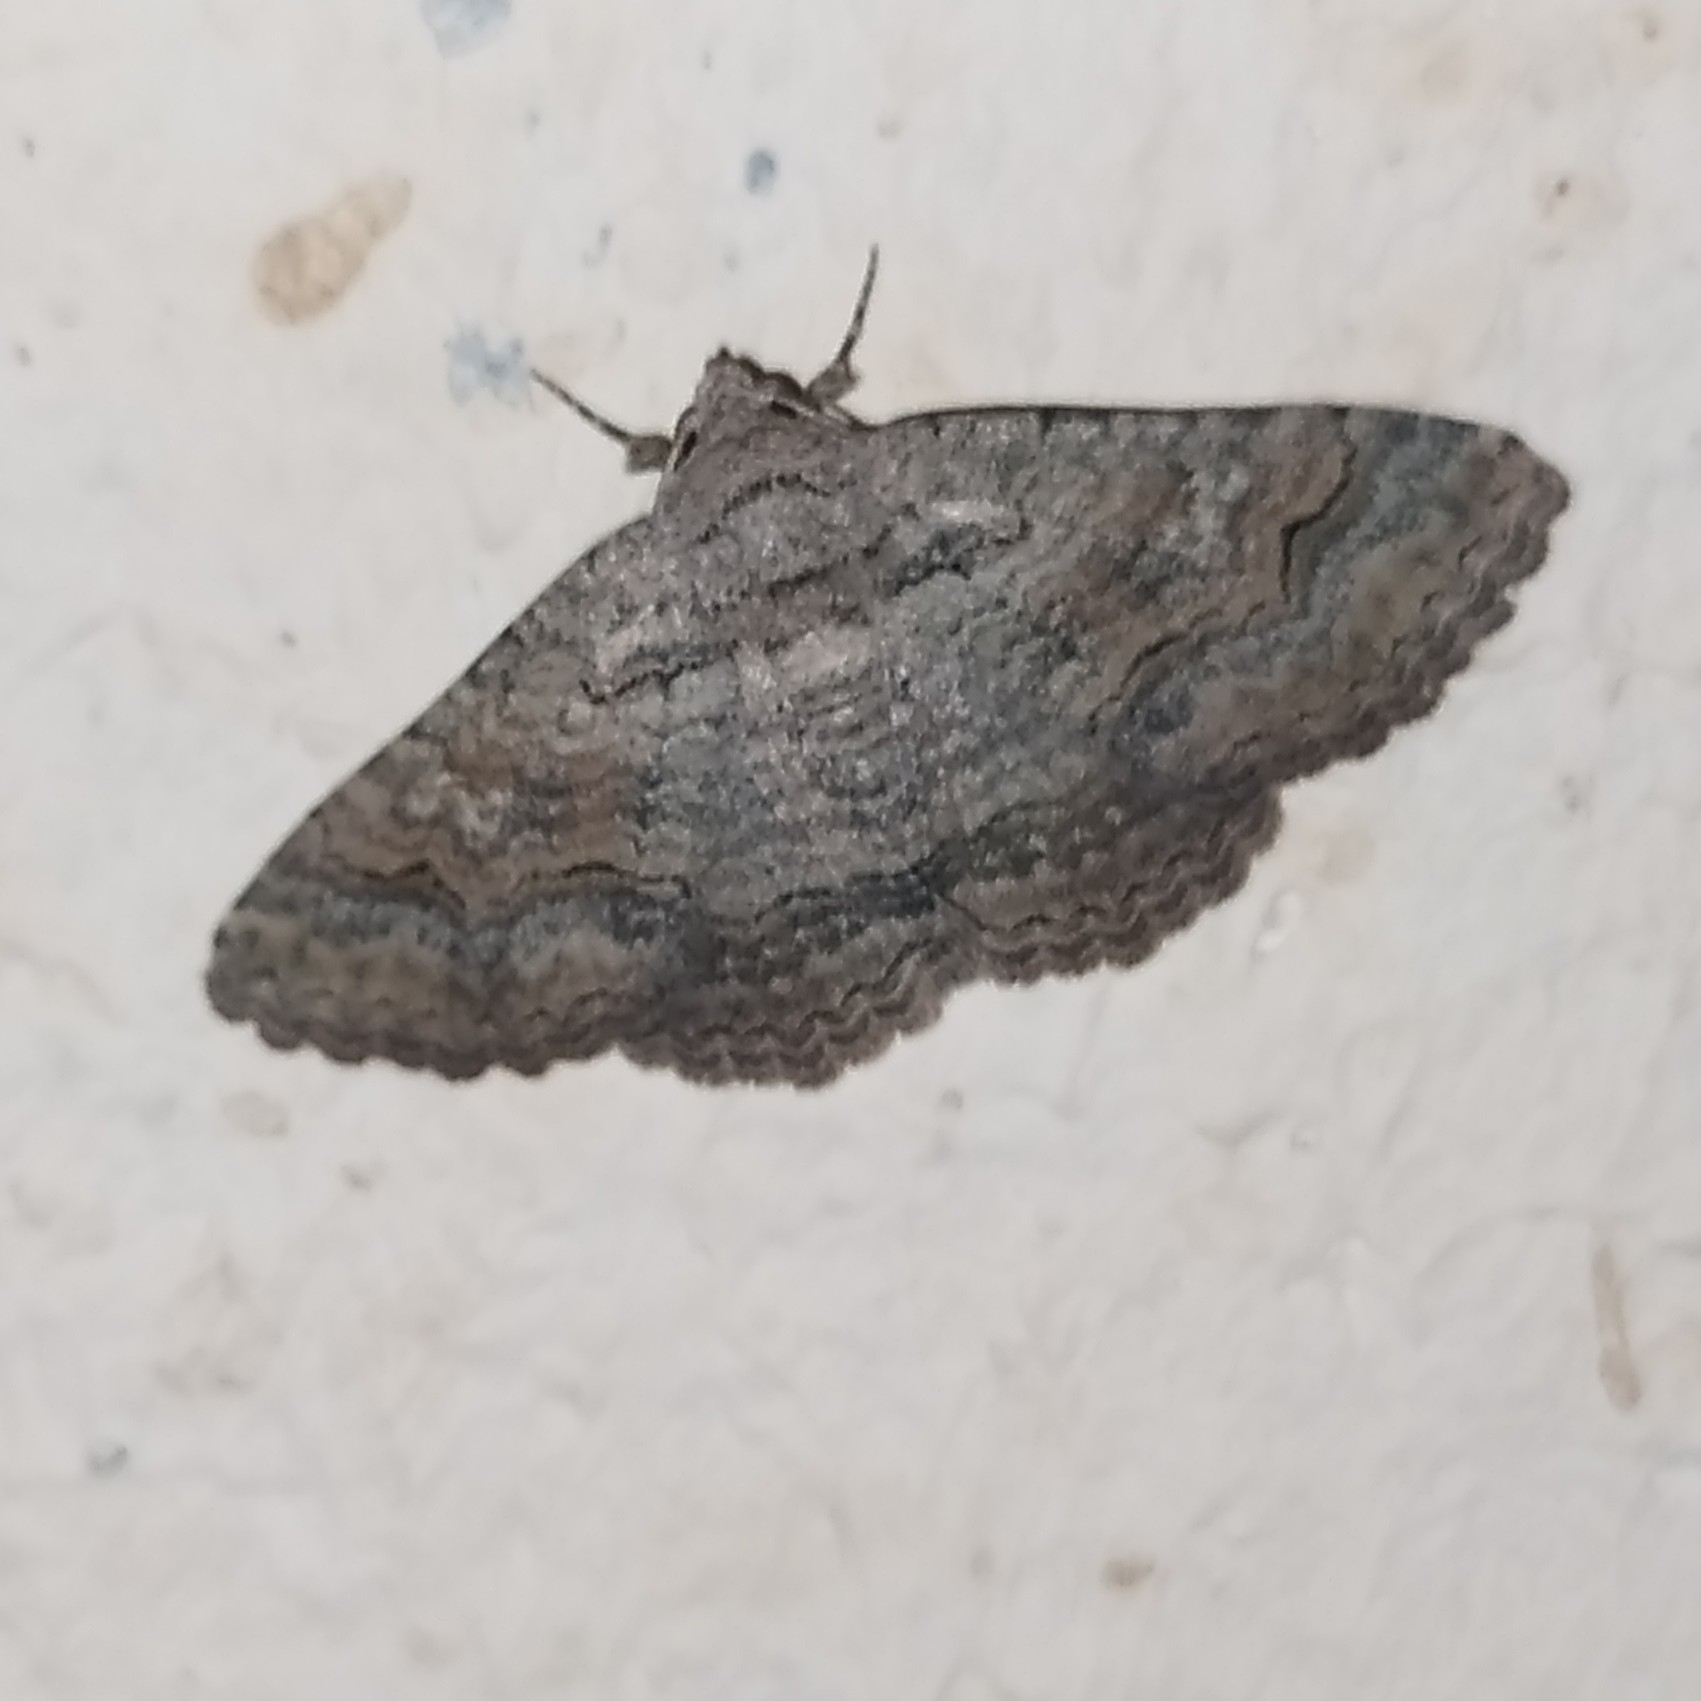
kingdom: Animalia
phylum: Arthropoda
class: Insecta
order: Lepidoptera
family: Erebidae
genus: Pericyma
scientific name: Pericyma albidentaria
